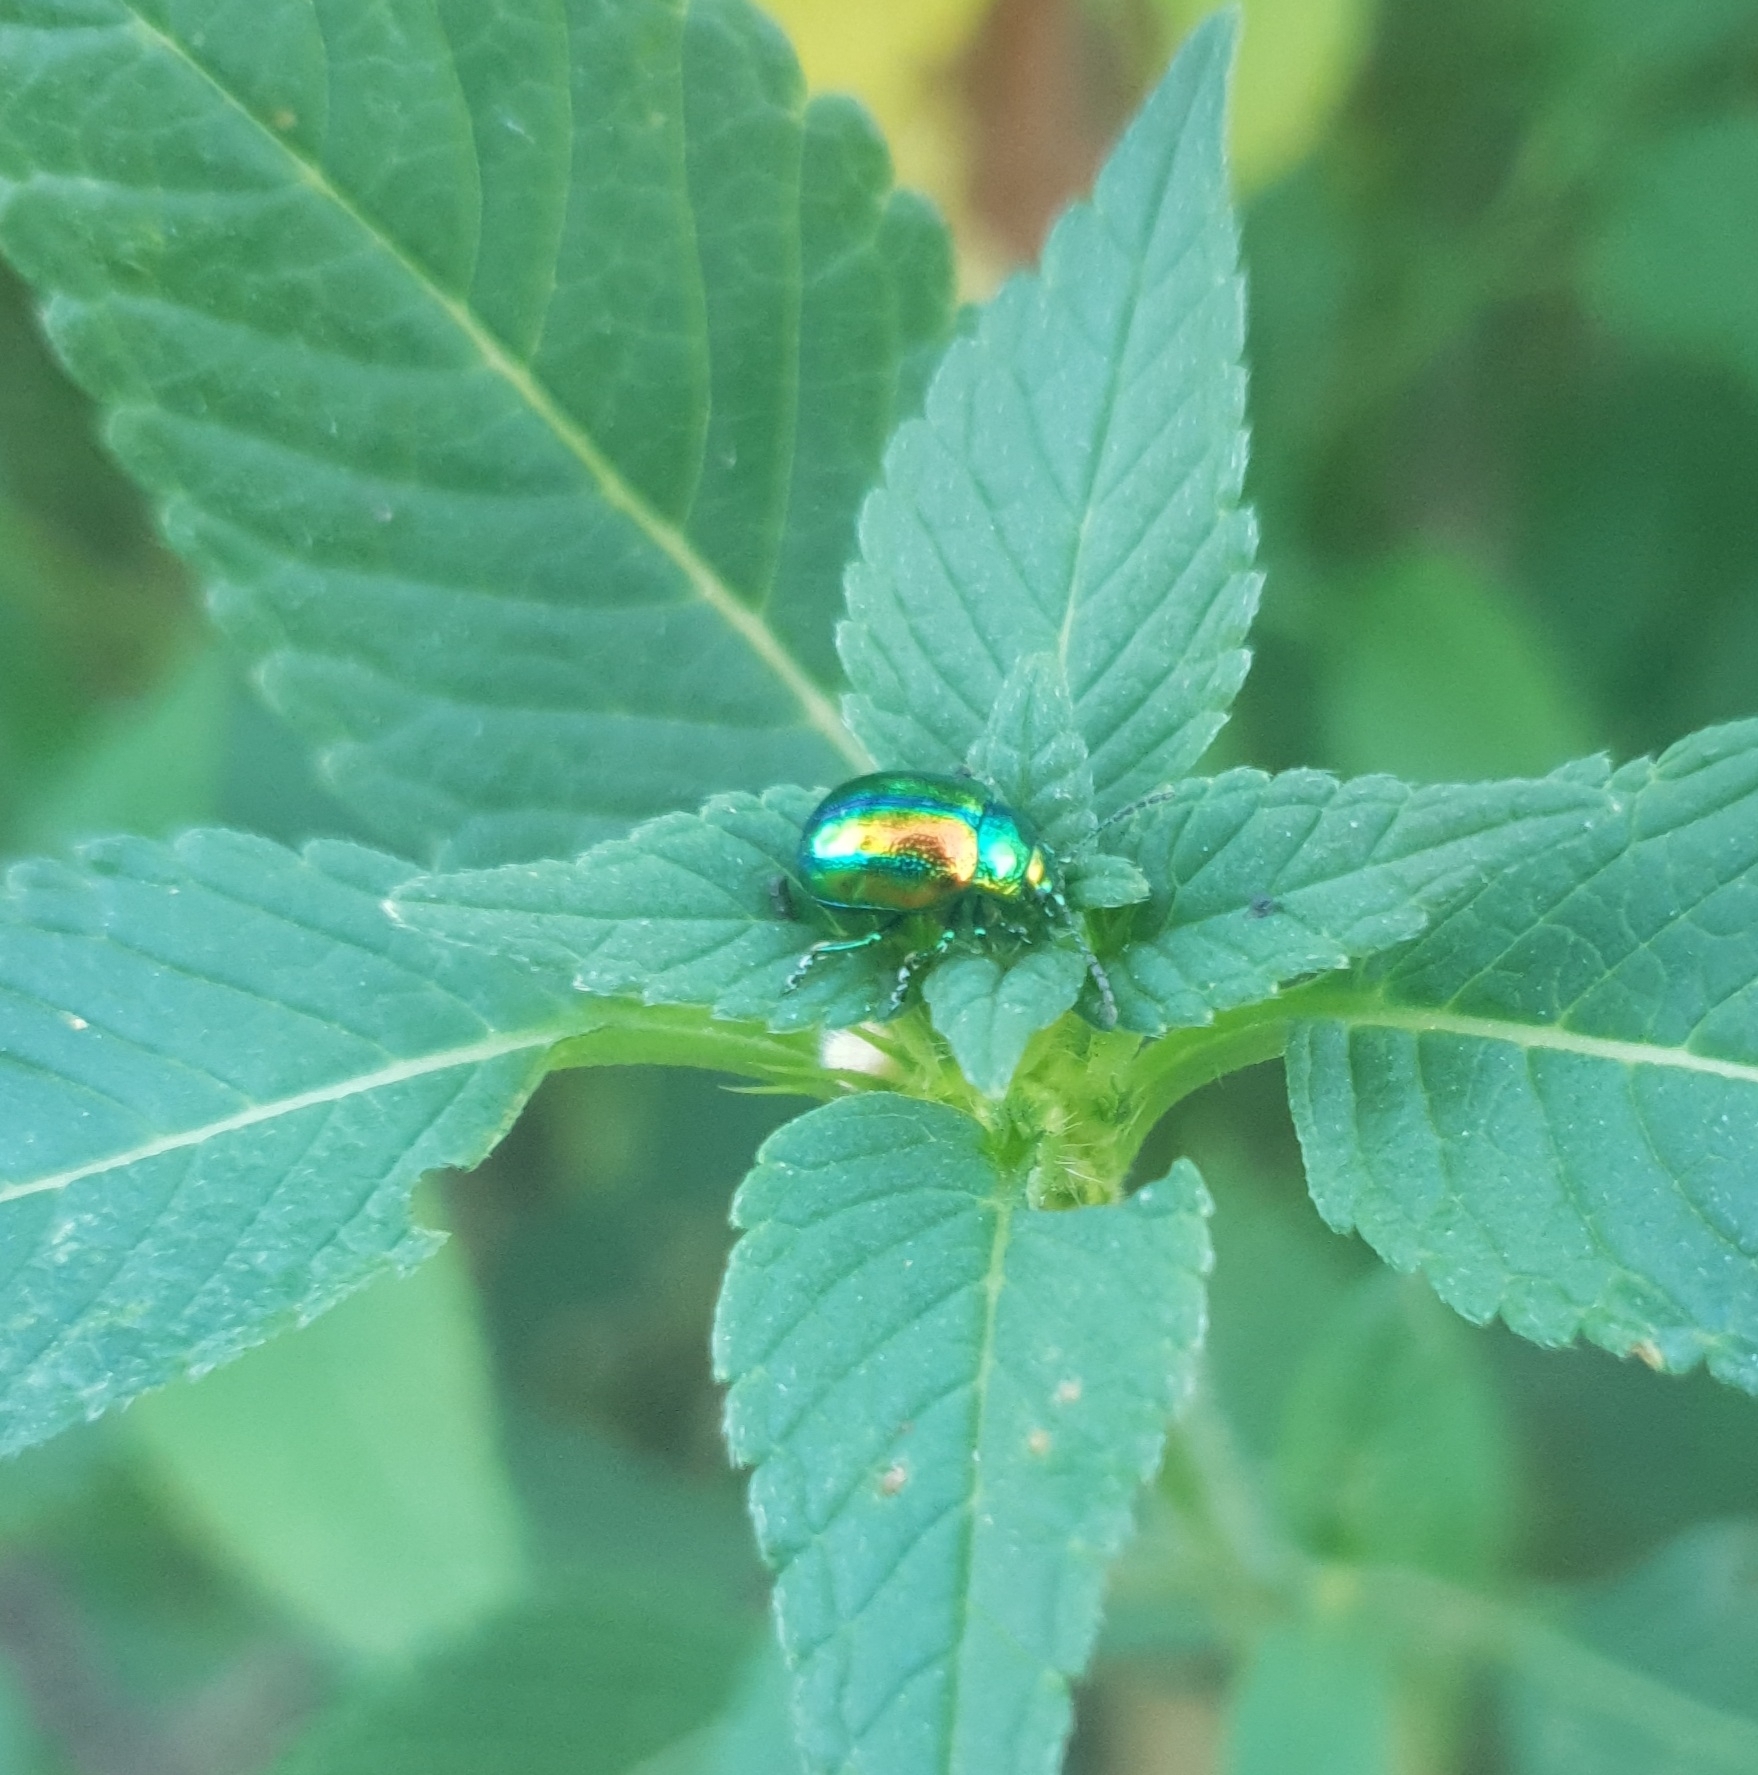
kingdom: Animalia
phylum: Arthropoda
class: Insecta
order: Coleoptera
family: Chrysomelidae
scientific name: Chrysomelidae
